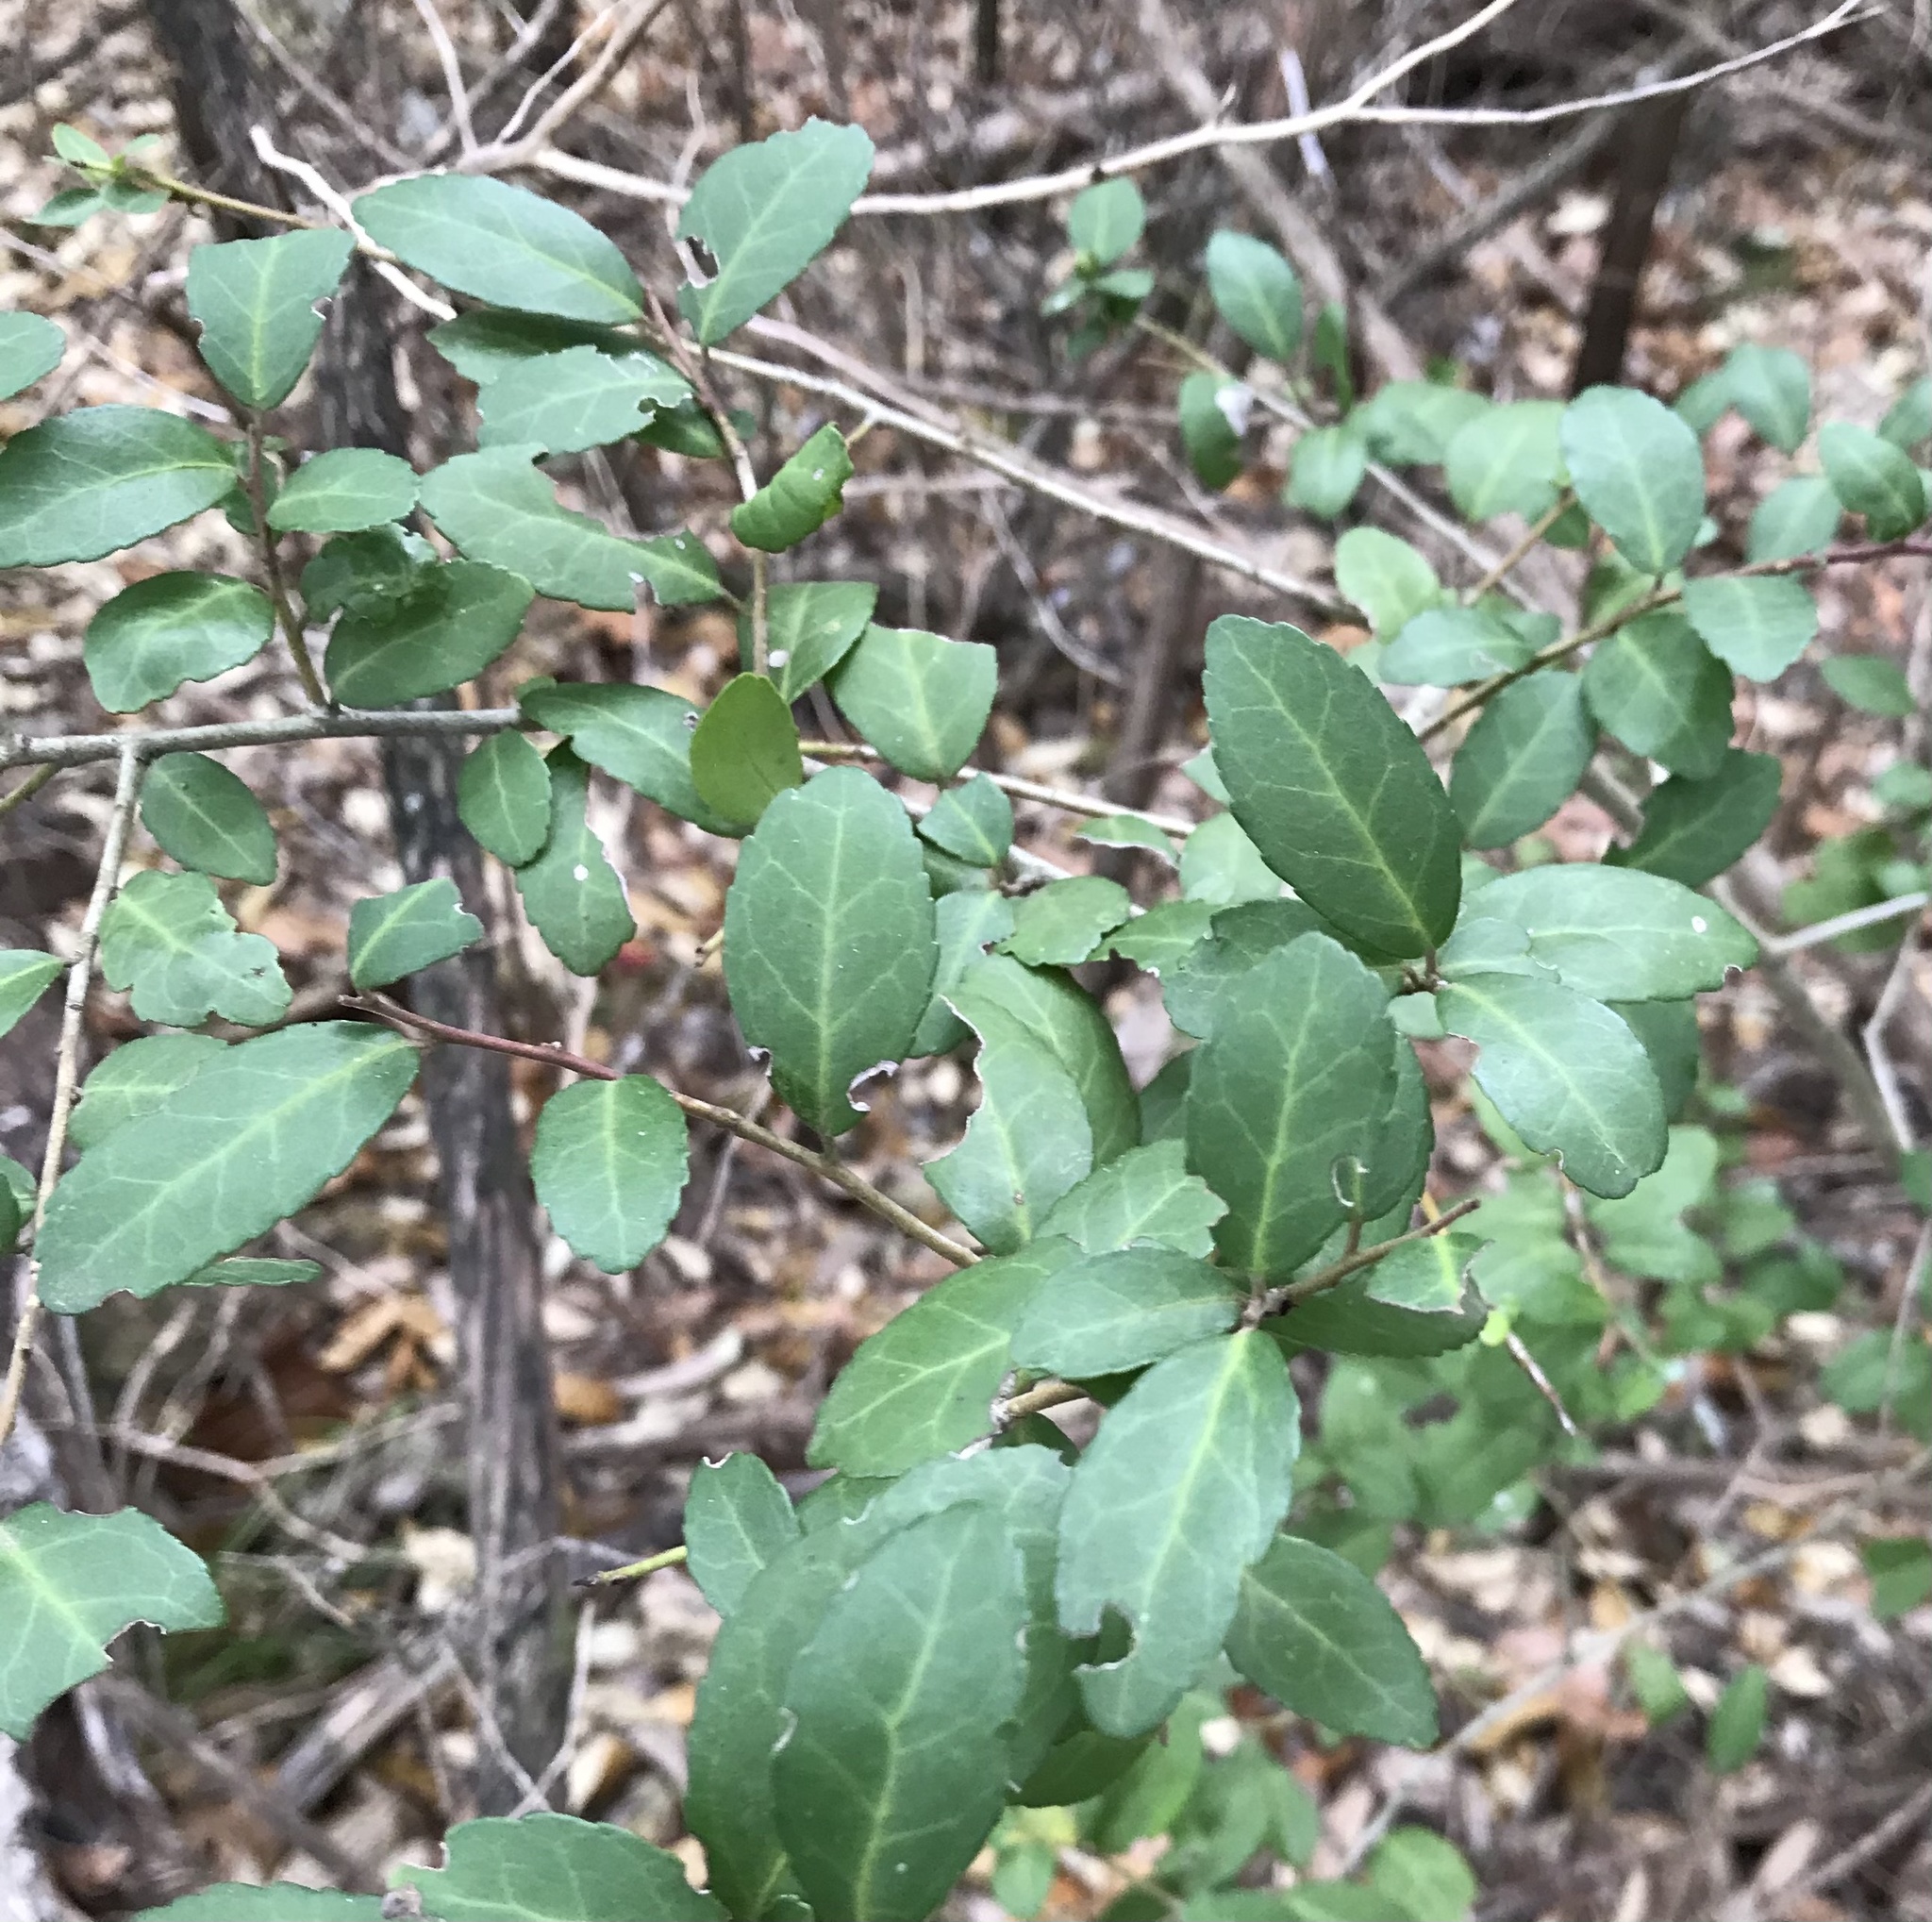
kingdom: Plantae
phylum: Tracheophyta
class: Magnoliopsida
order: Aquifoliales
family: Aquifoliaceae
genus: Ilex
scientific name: Ilex vomitoria
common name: Yaupon holly
